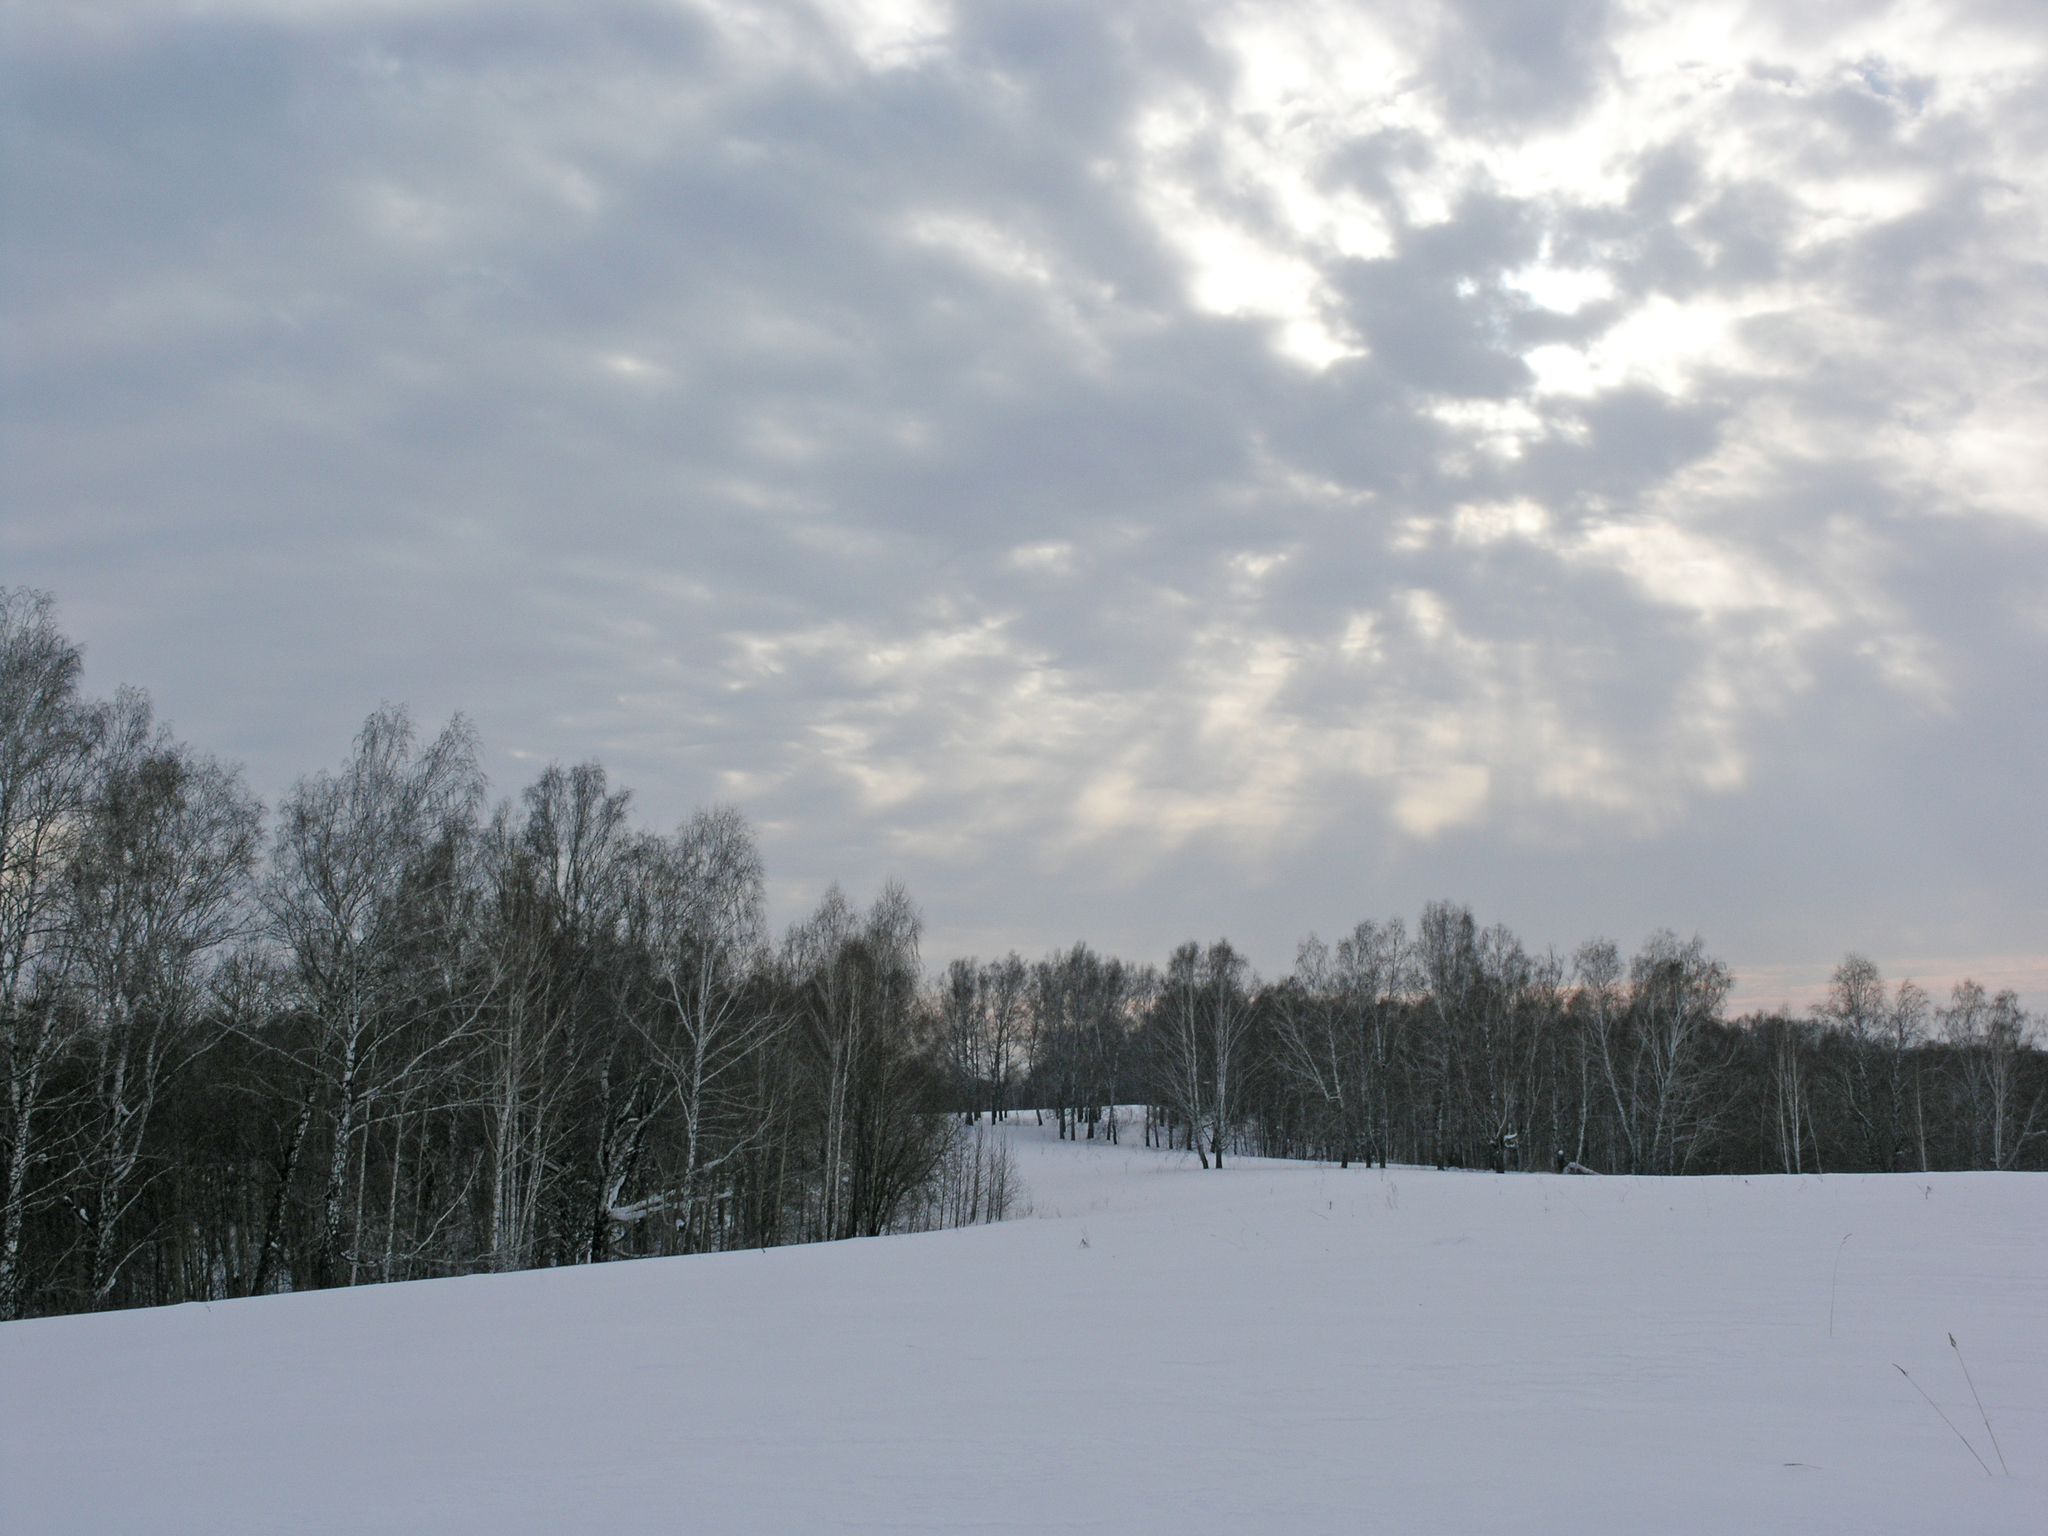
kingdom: Plantae
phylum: Tracheophyta
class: Magnoliopsida
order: Fagales
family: Betulaceae
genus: Betula
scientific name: Betula pendula
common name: Silver birch
